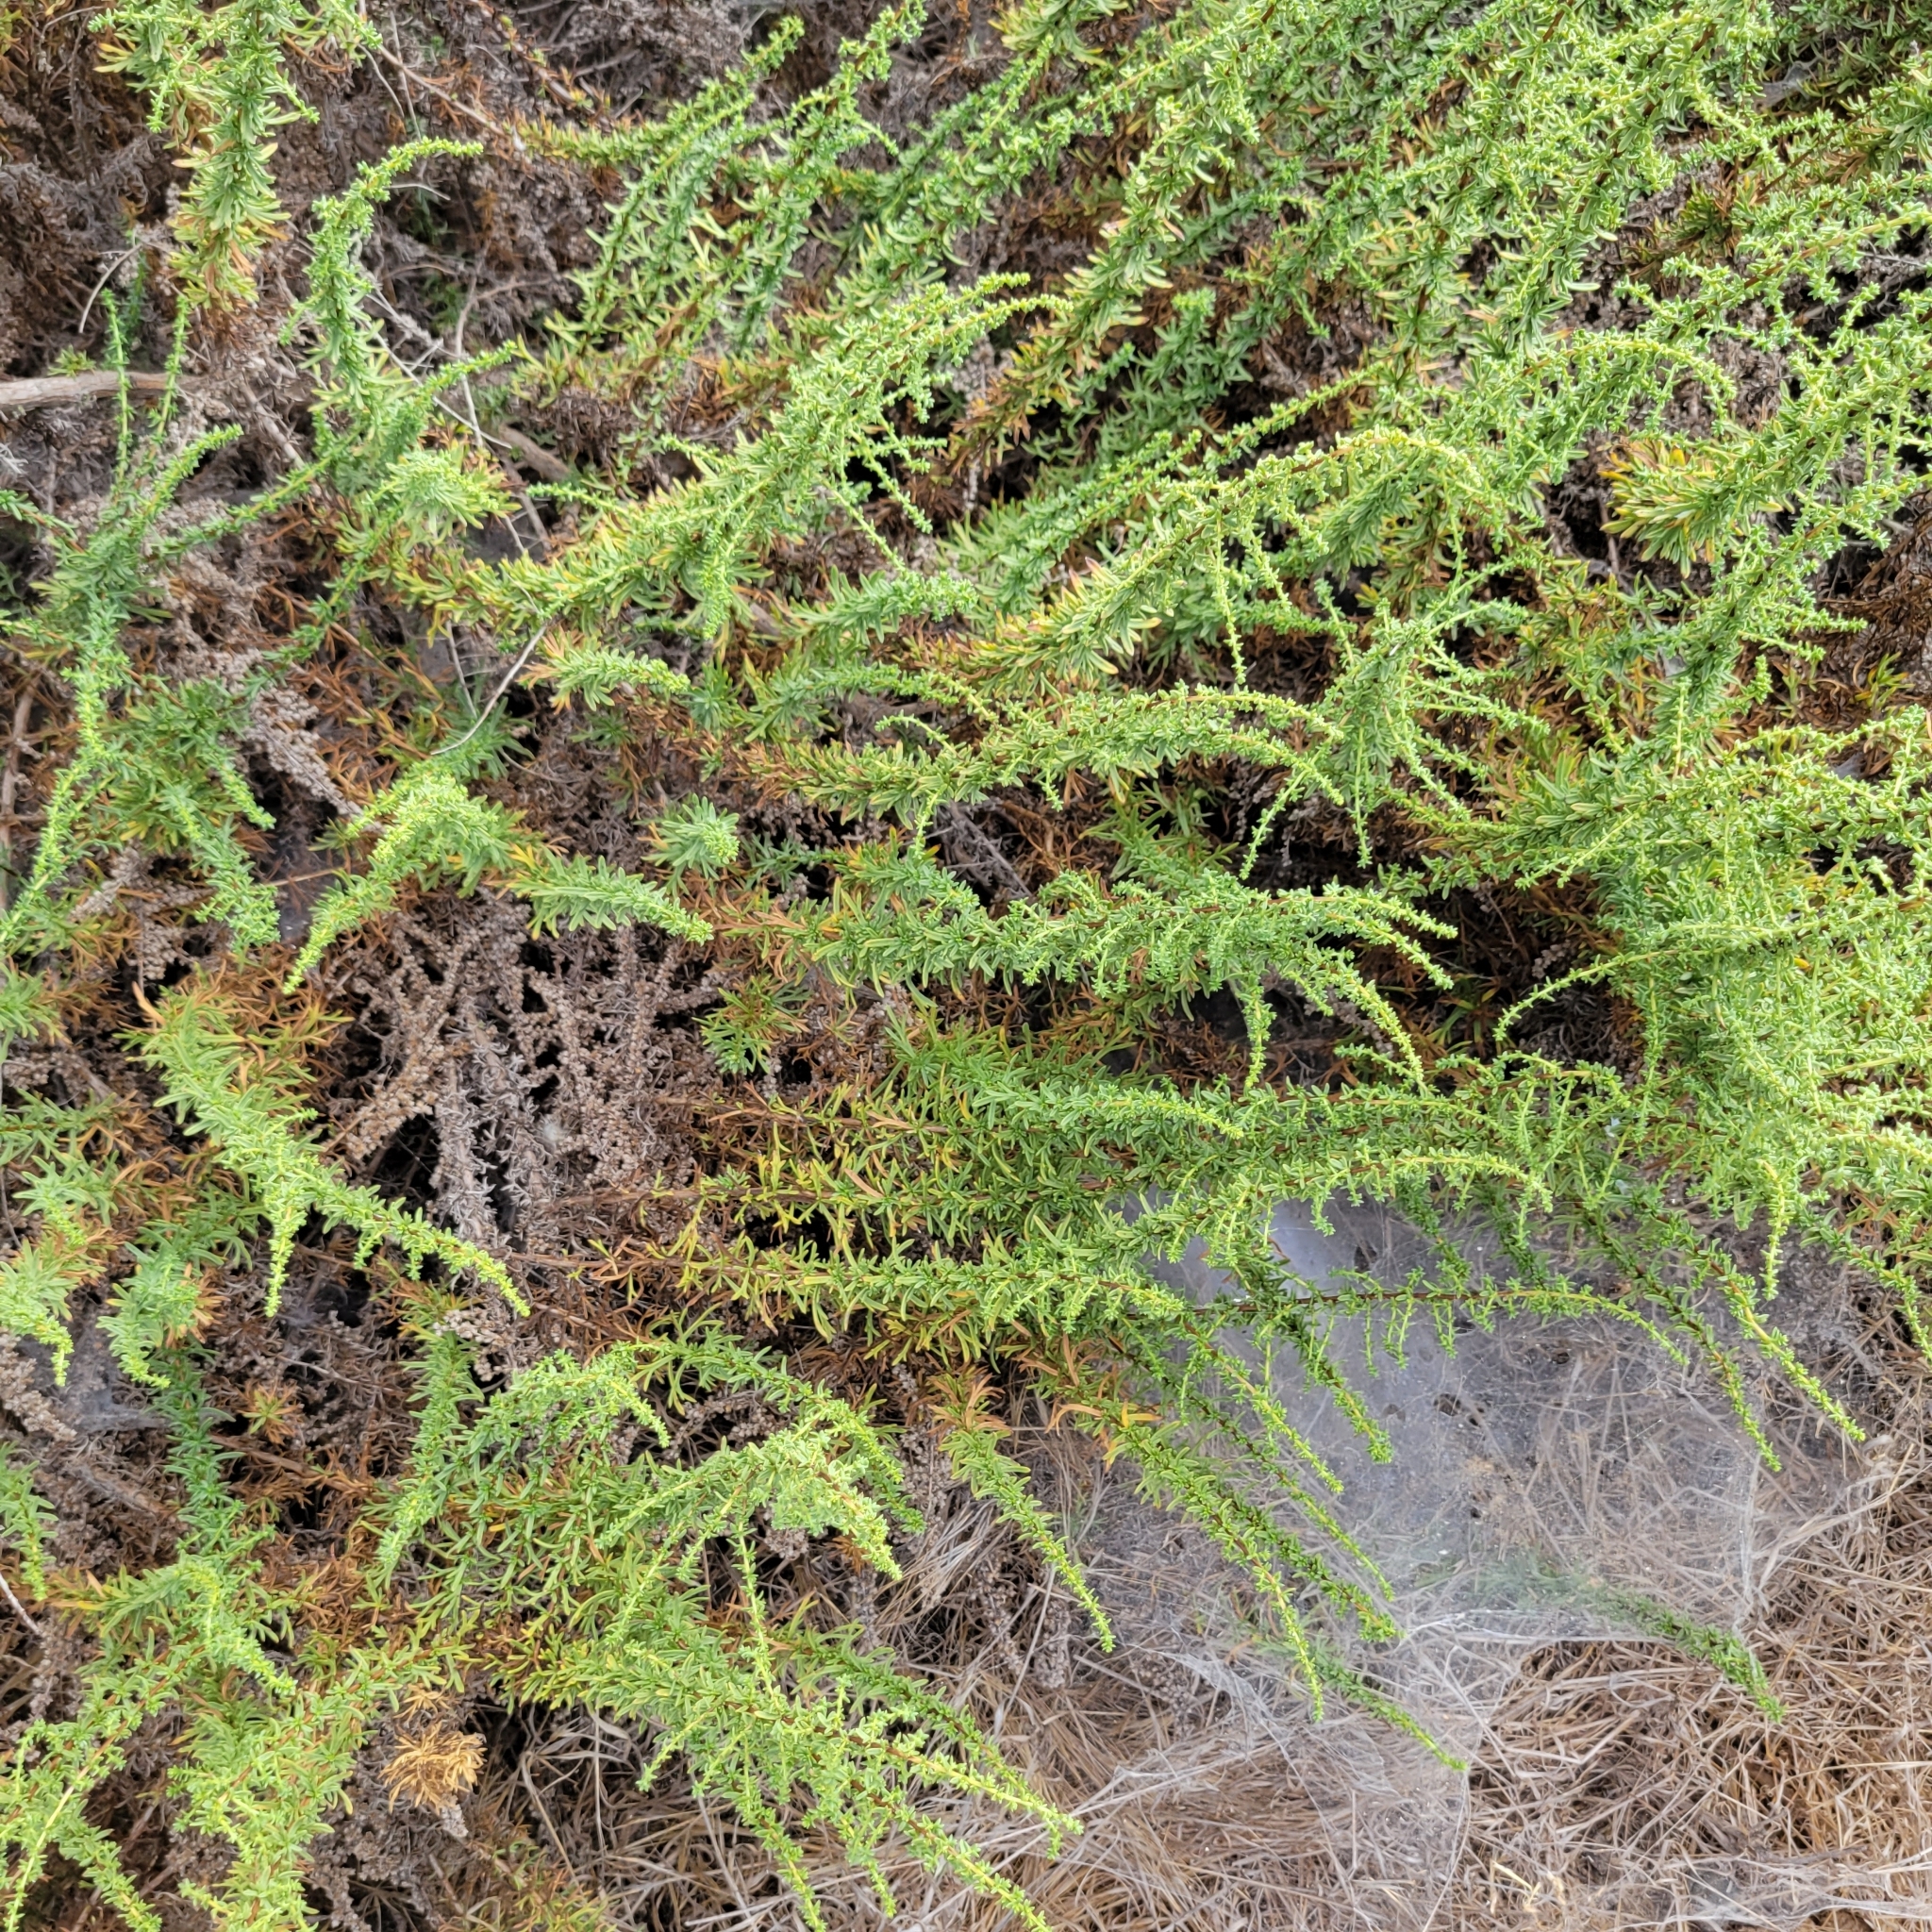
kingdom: Plantae
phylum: Tracheophyta
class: Magnoliopsida
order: Asterales
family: Asteraceae
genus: Artemisia
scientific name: Artemisia monosperma
